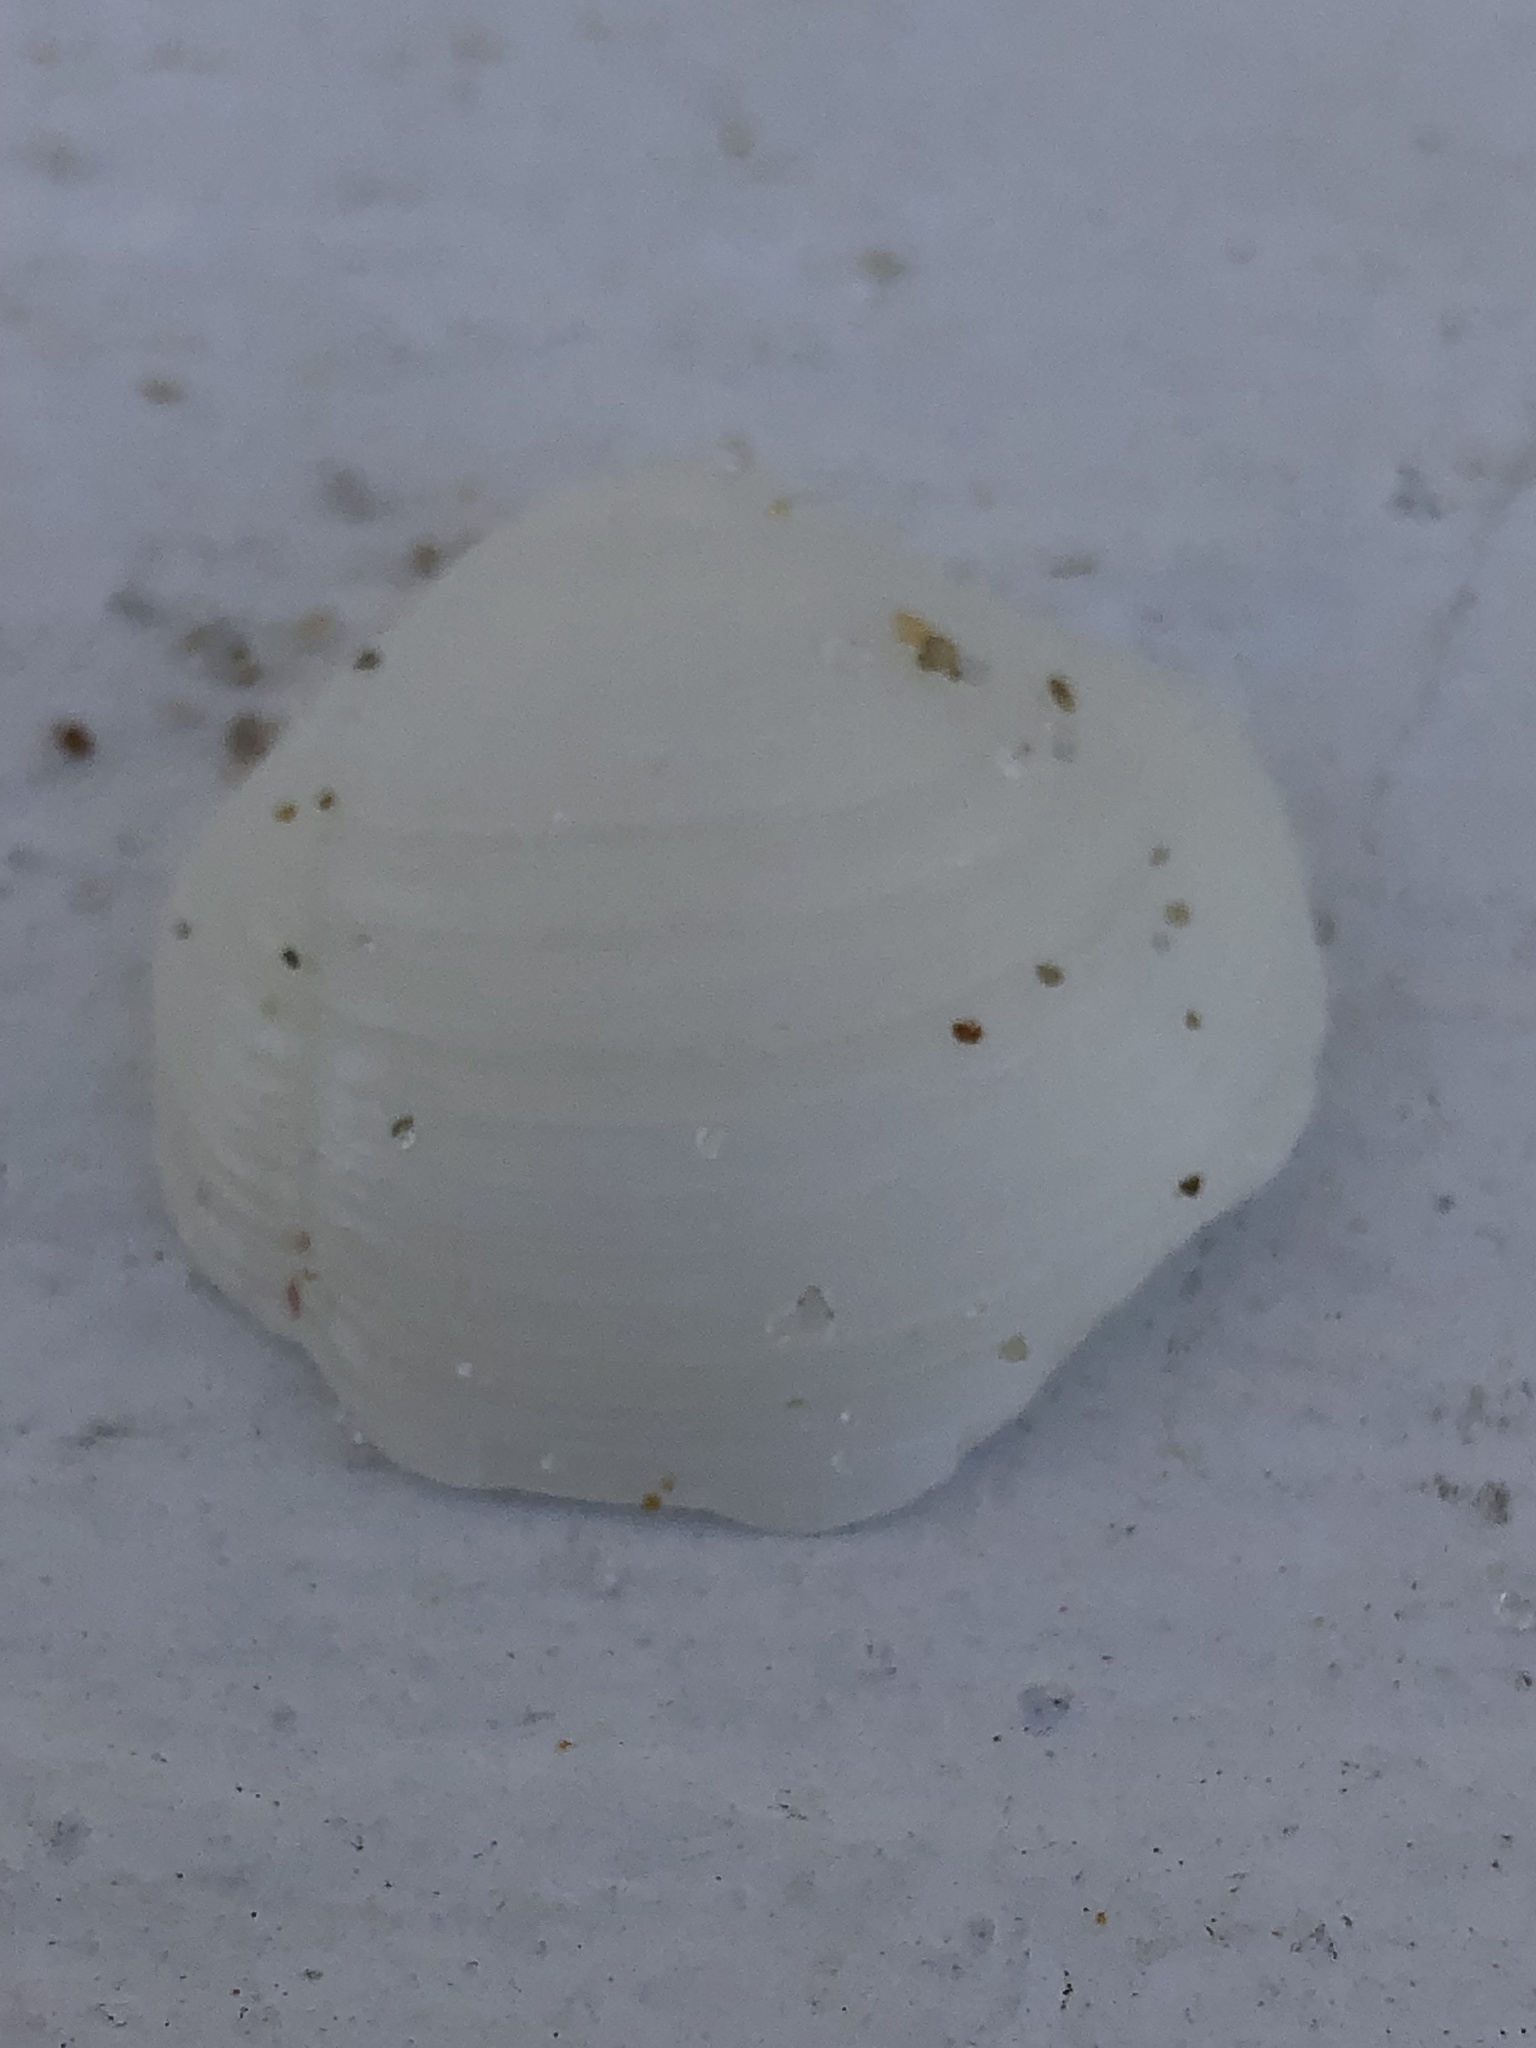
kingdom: Animalia
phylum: Mollusca
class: Bivalvia
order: Lucinida
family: Lucinidae
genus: Lucina
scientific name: Lucina pensylvanica
